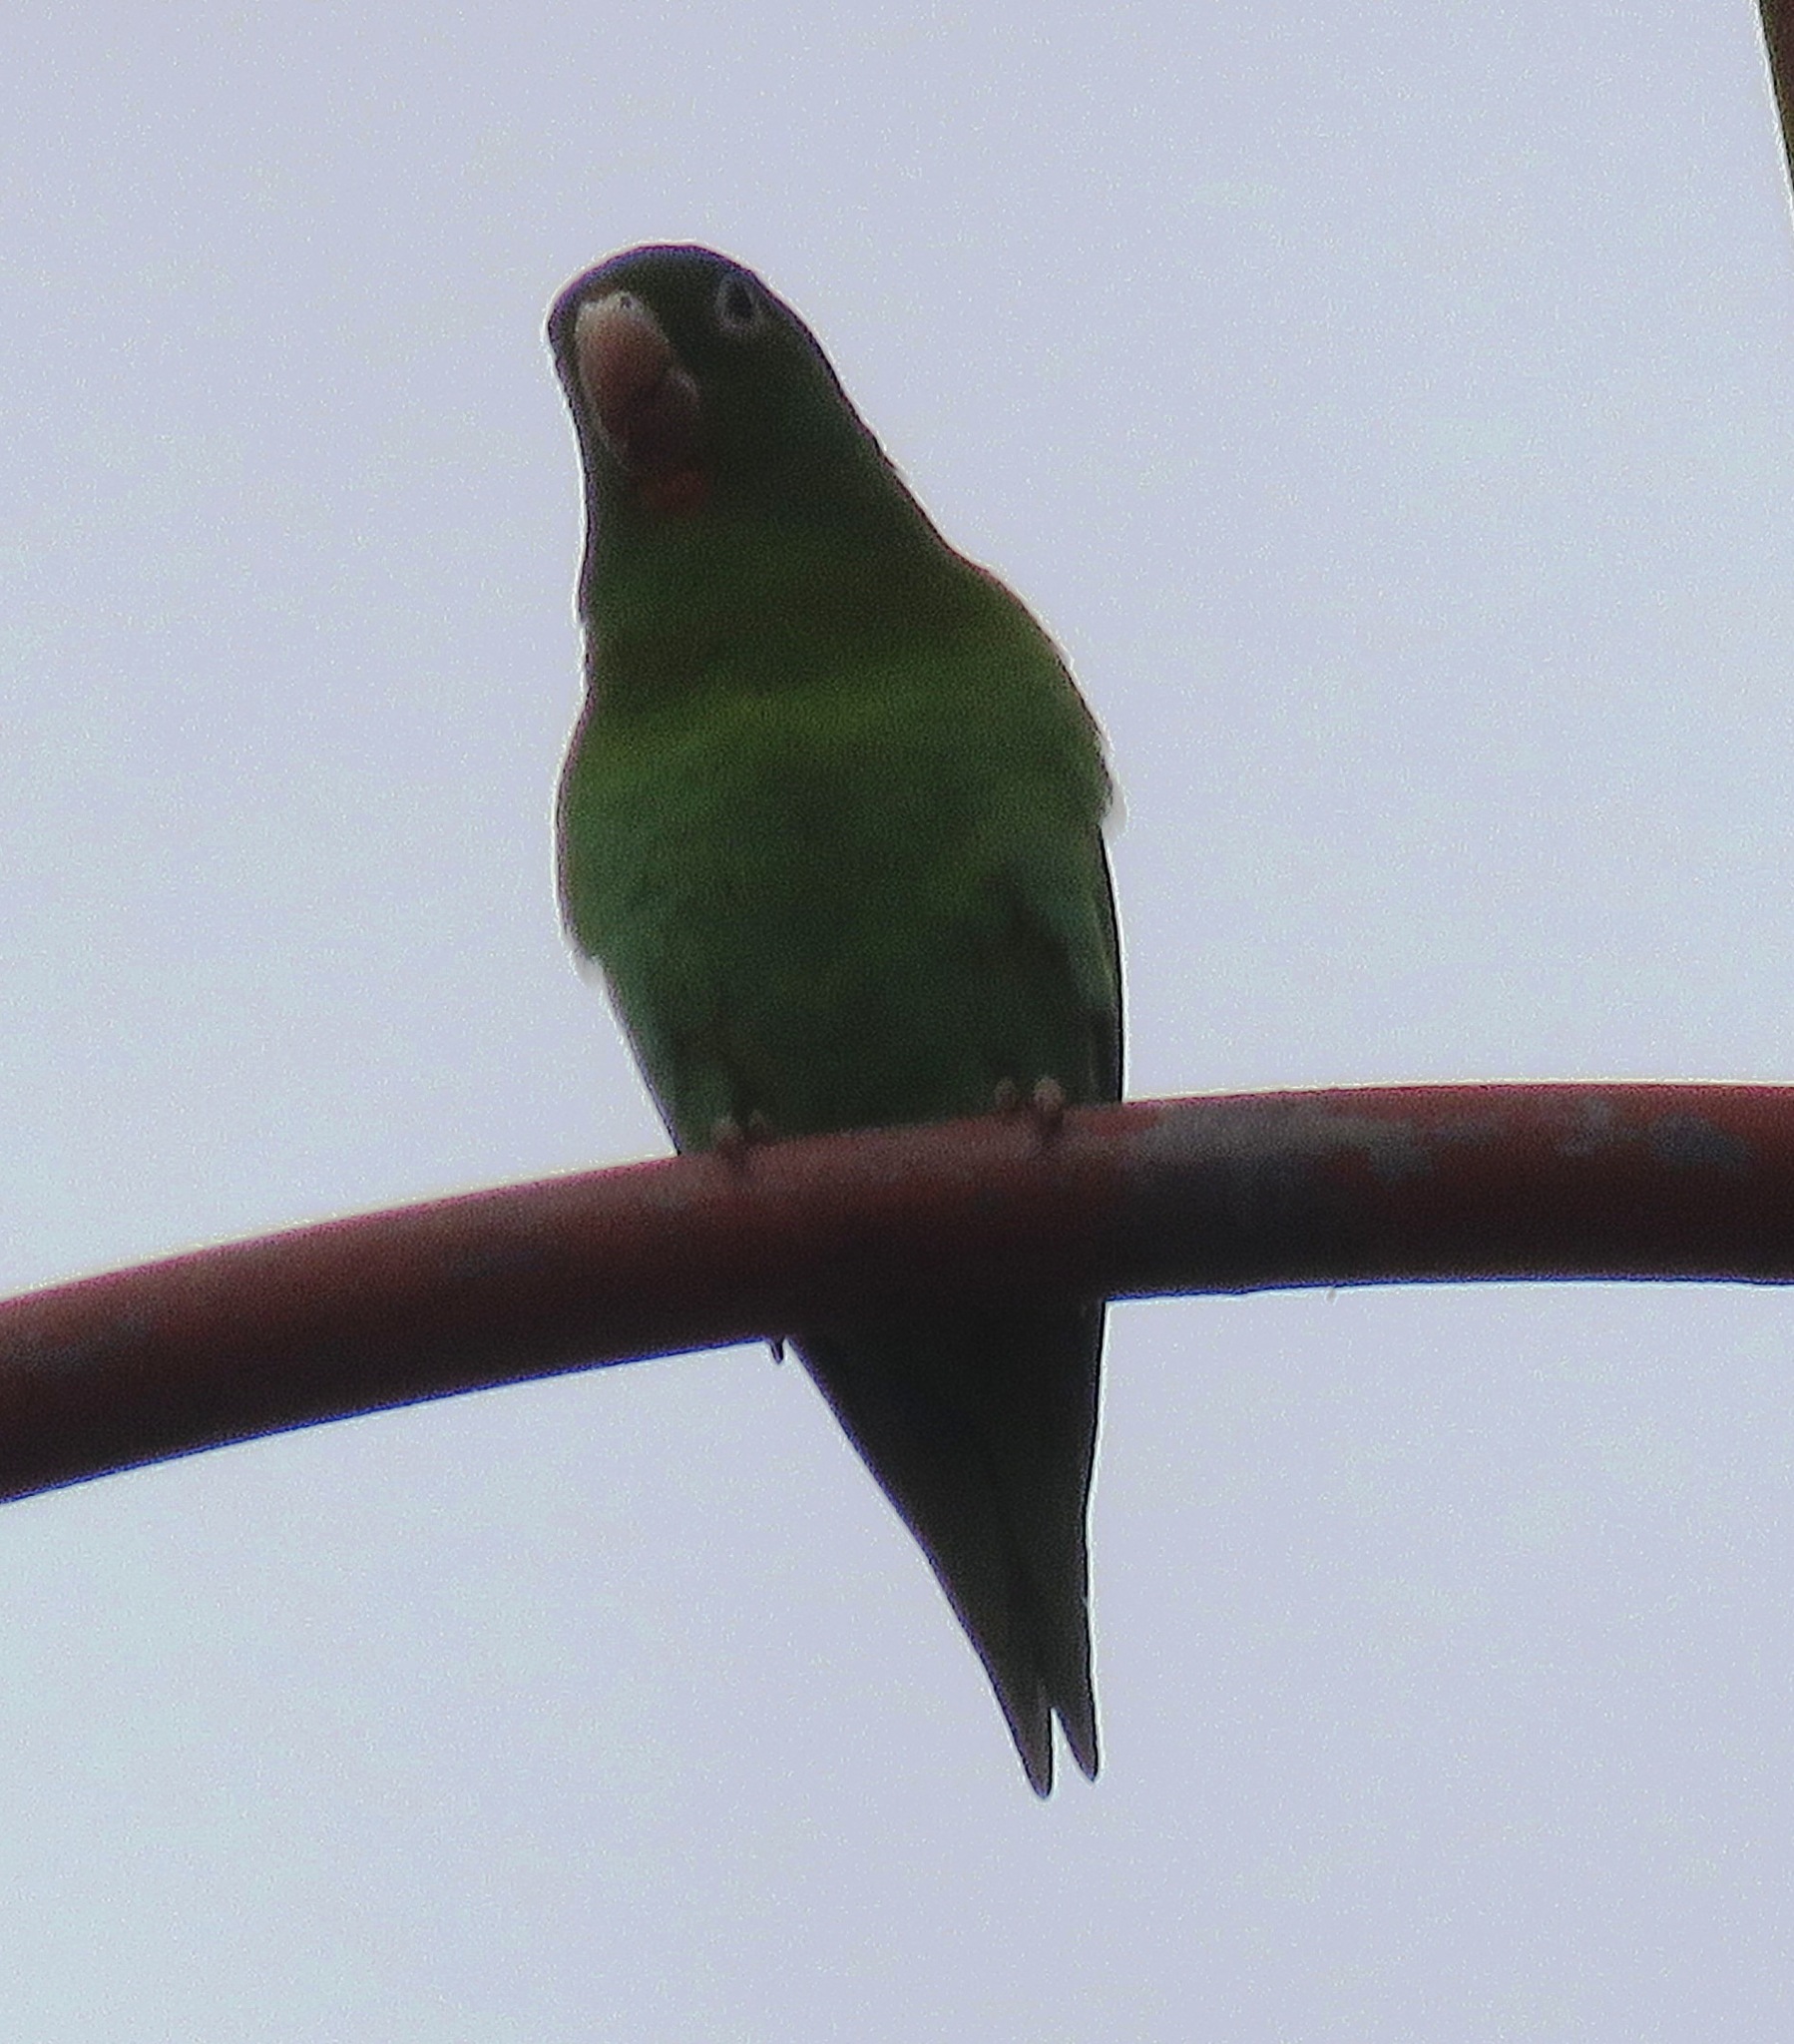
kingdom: Animalia
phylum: Chordata
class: Aves
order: Psittaciformes
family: Psittacidae
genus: Brotogeris
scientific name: Brotogeris jugularis
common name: Orange-chinned parakeet
